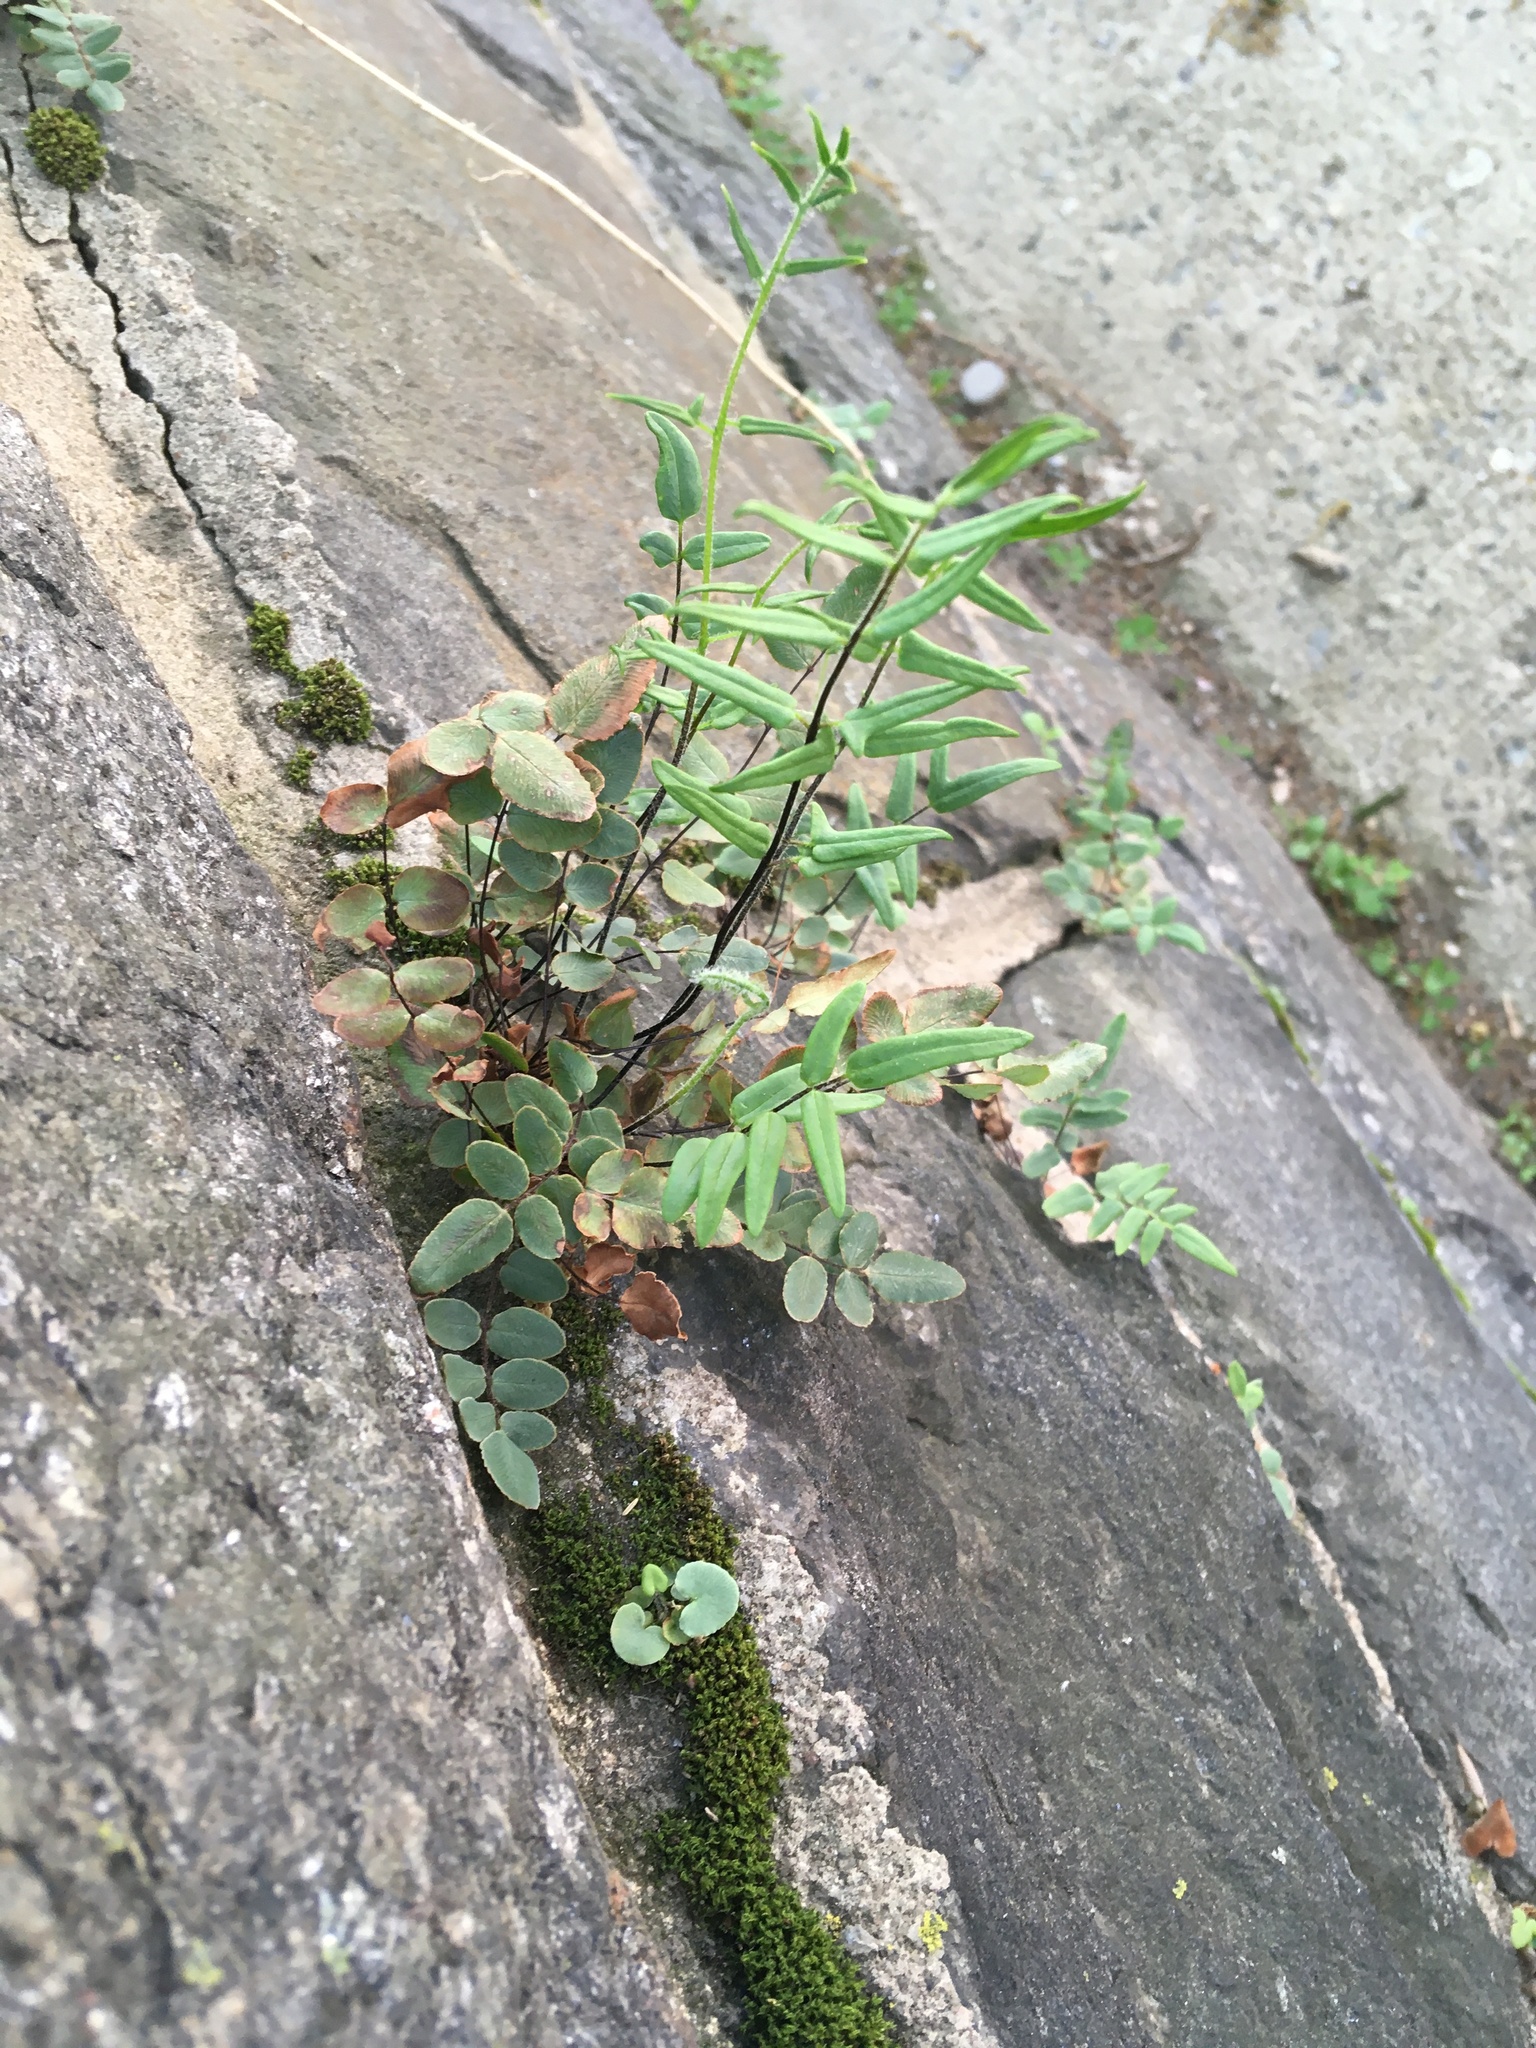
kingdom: Plantae
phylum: Tracheophyta
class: Polypodiopsida
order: Polypodiales
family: Pteridaceae
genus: Pellaea
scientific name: Pellaea atropurpurea
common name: Hairy cliffbrake
